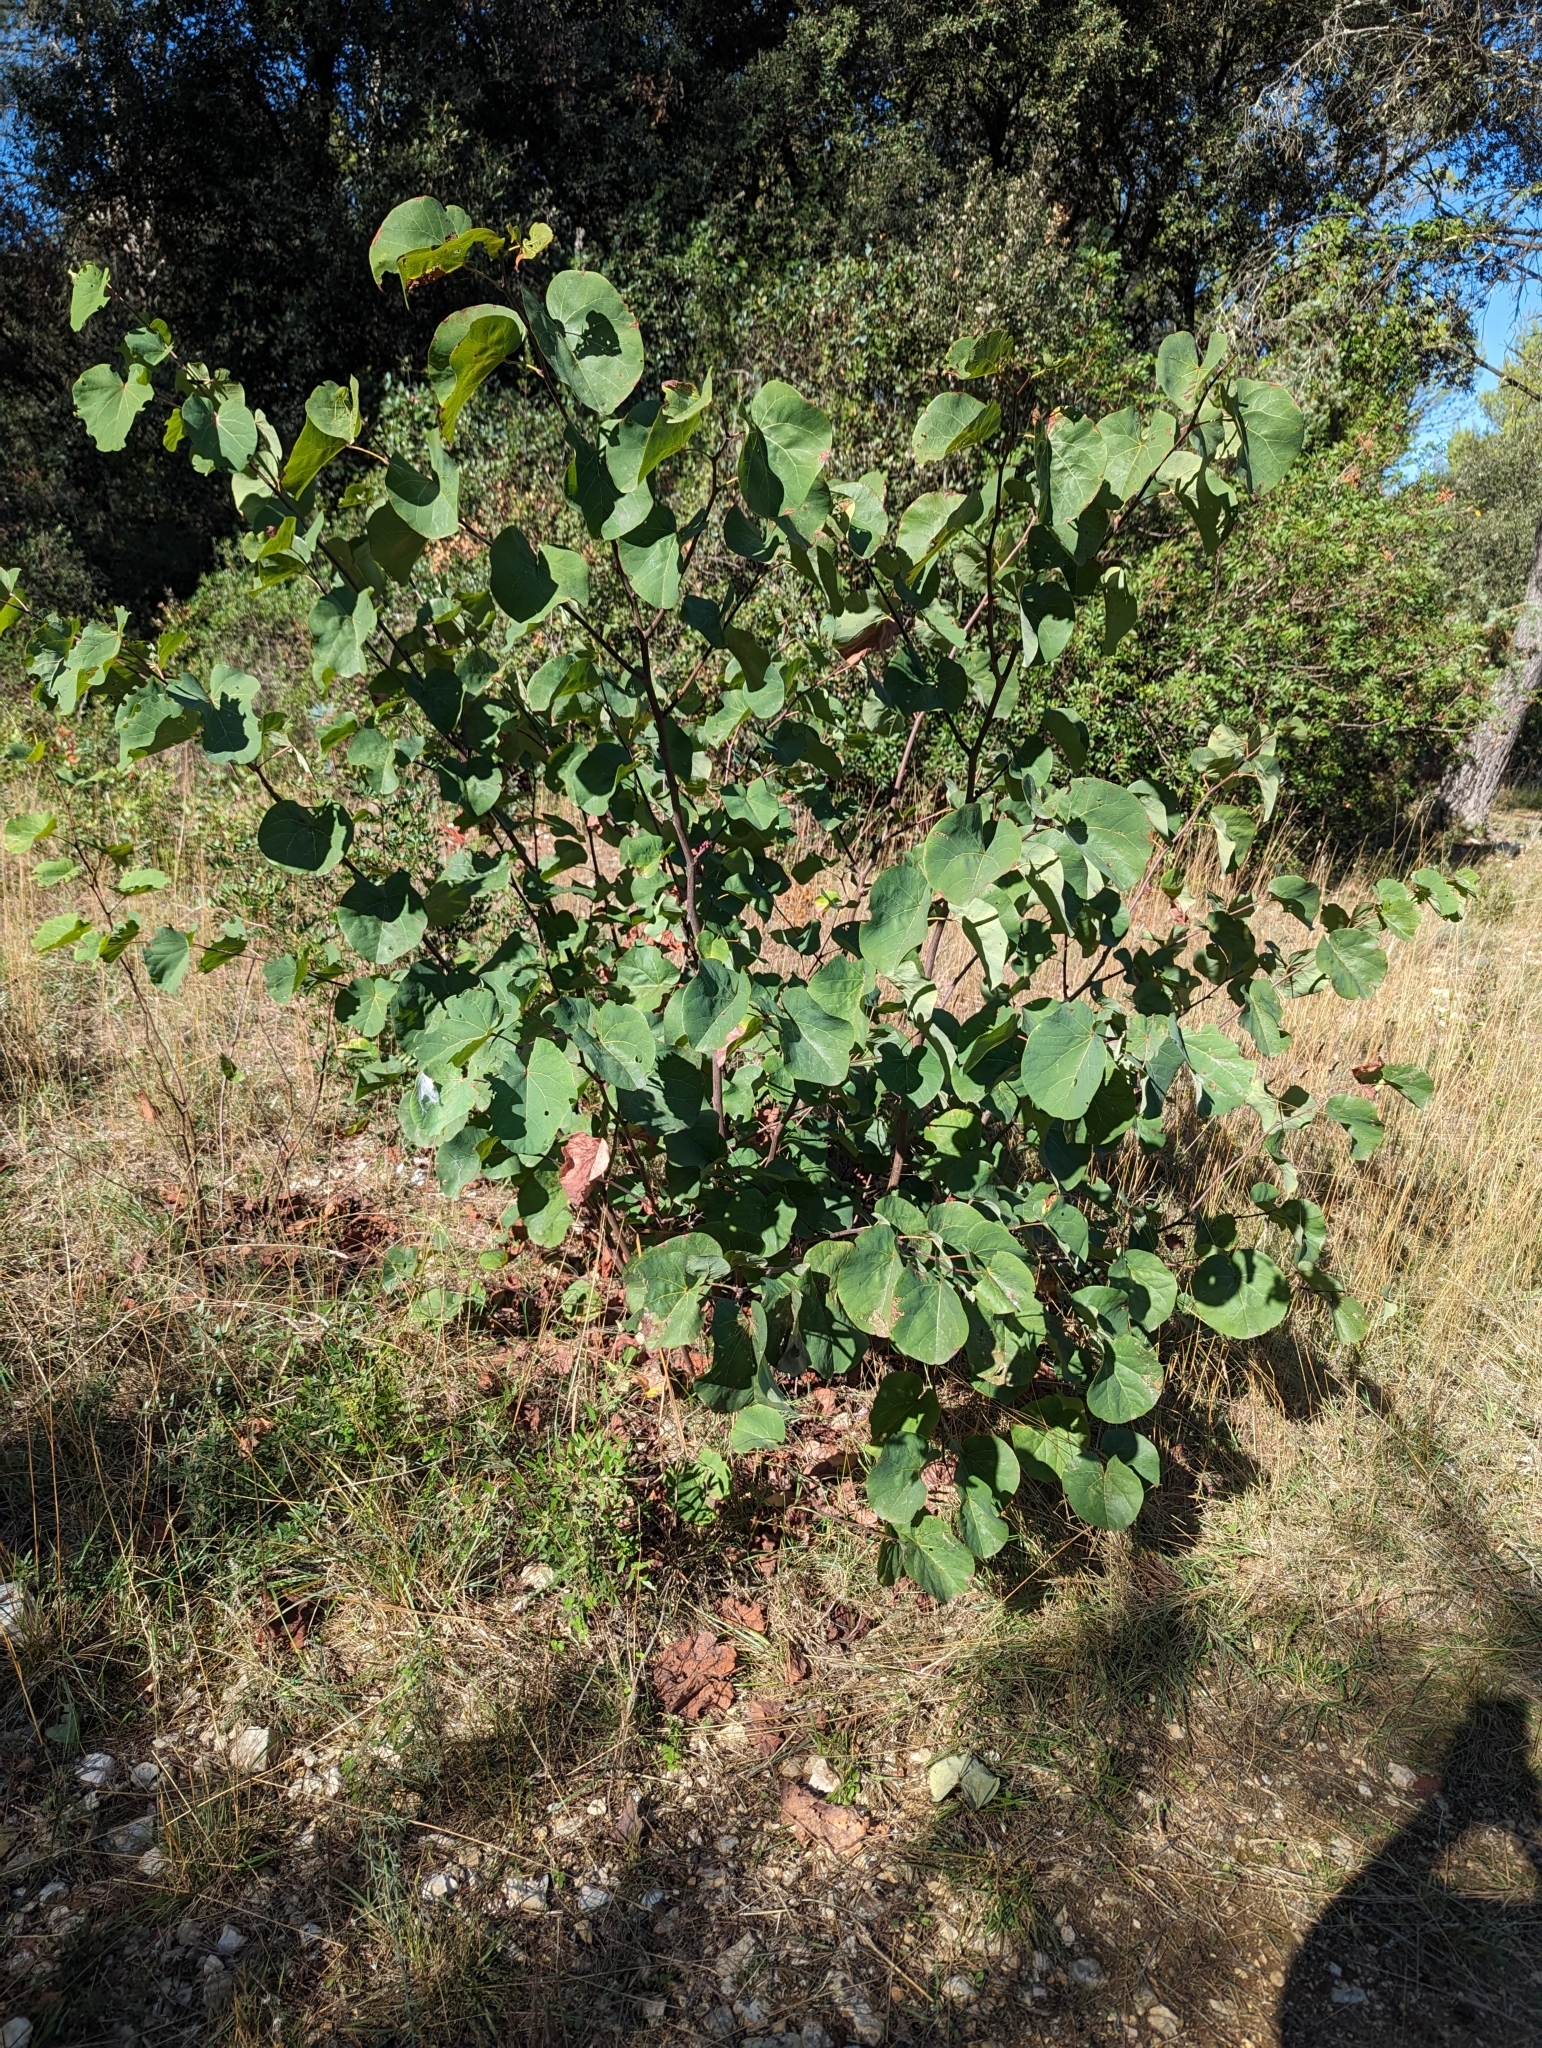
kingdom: Plantae
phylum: Tracheophyta
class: Magnoliopsida
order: Fabales
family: Fabaceae
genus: Cercis
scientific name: Cercis siliquastrum
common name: Judas tree
